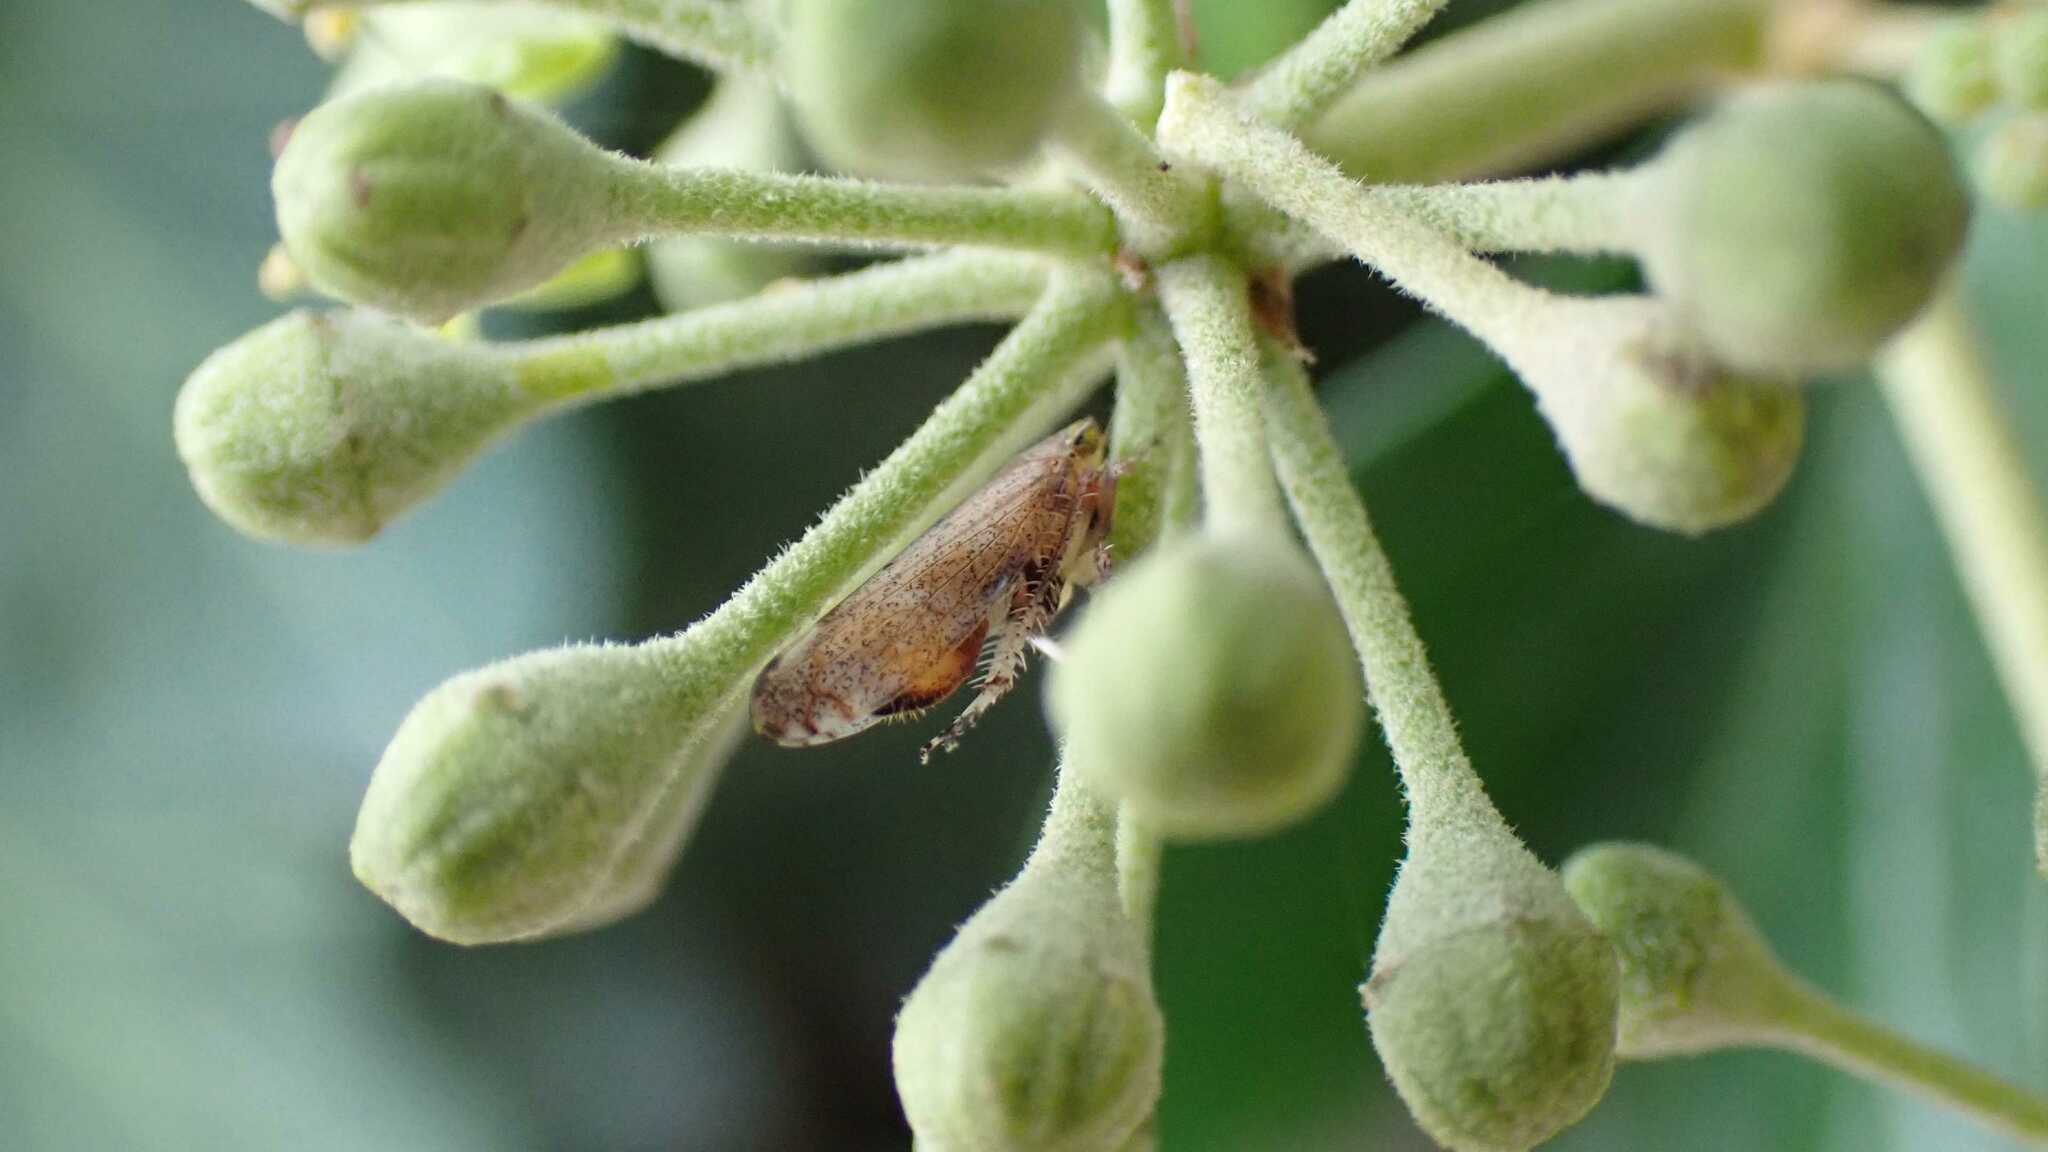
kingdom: Animalia
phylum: Arthropoda
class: Insecta
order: Hemiptera
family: Cicadellidae
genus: Fieberiella
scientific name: Fieberiella
